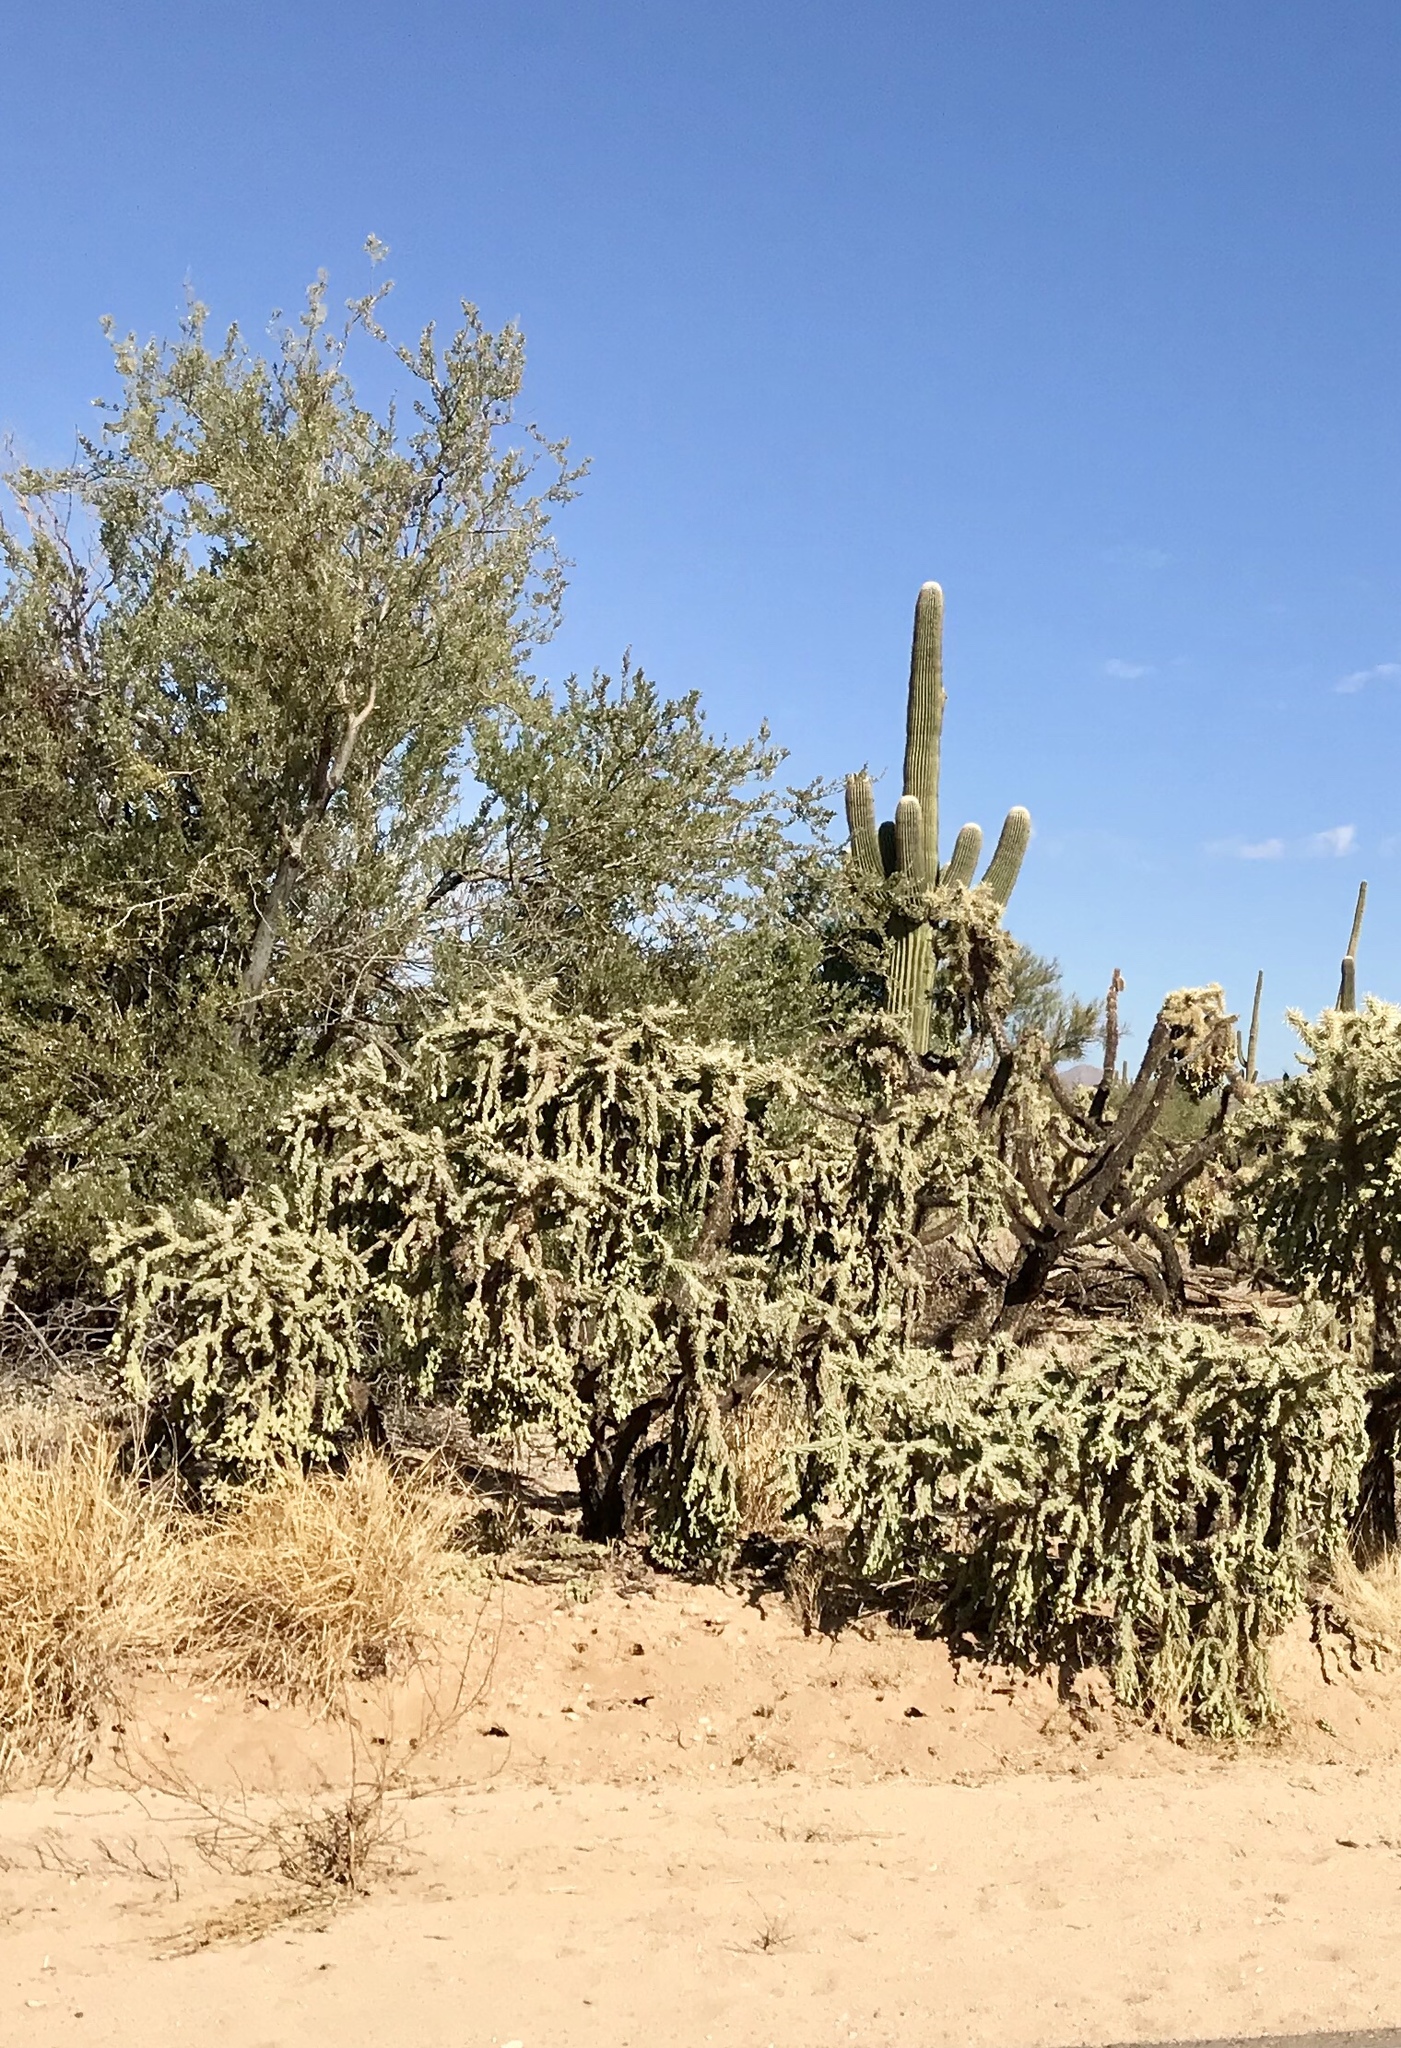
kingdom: Plantae
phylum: Tracheophyta
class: Magnoliopsida
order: Caryophyllales
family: Cactaceae
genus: Cylindropuntia
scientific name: Cylindropuntia fulgida
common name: Jumping cholla
